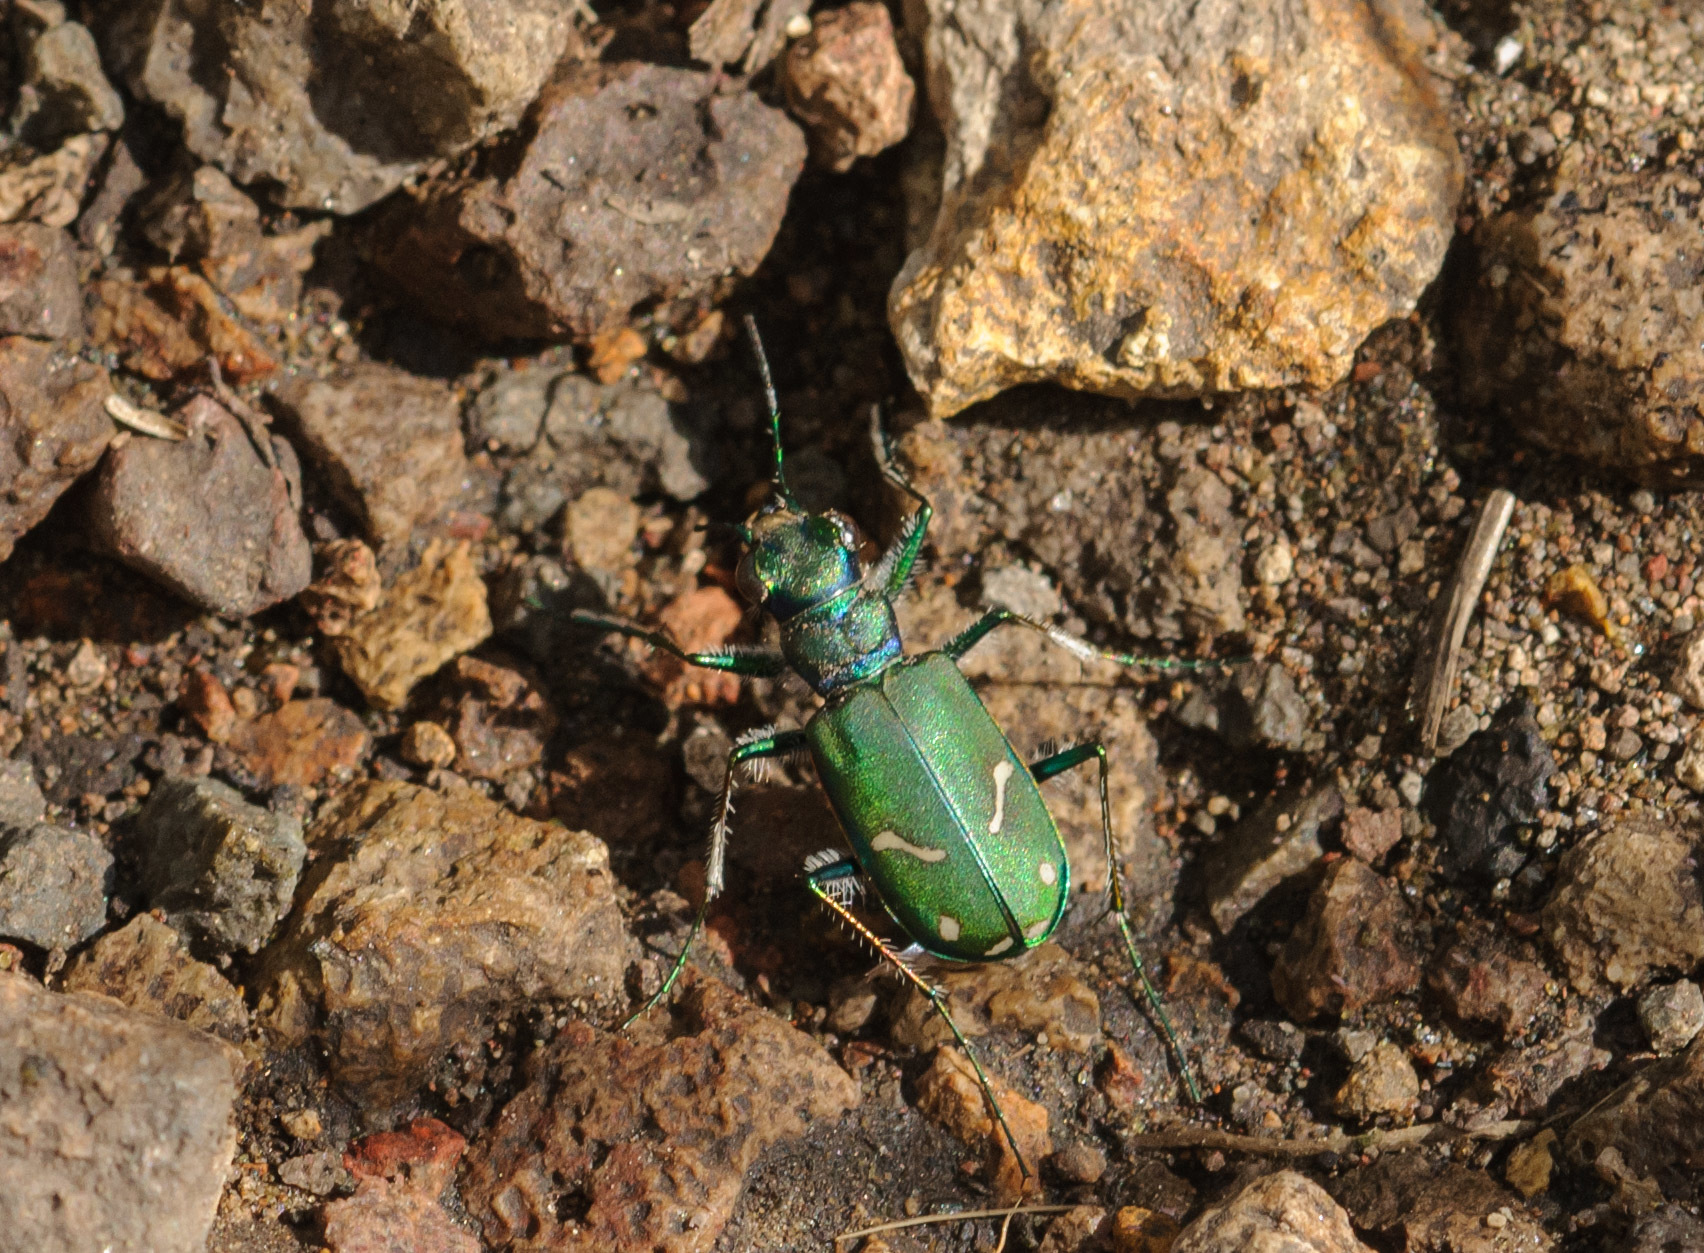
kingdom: Animalia
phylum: Arthropoda
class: Insecta
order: Coleoptera
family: Carabidae
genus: Cicindela
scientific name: Cicindela purpurea
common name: Cow path tiger beetle
